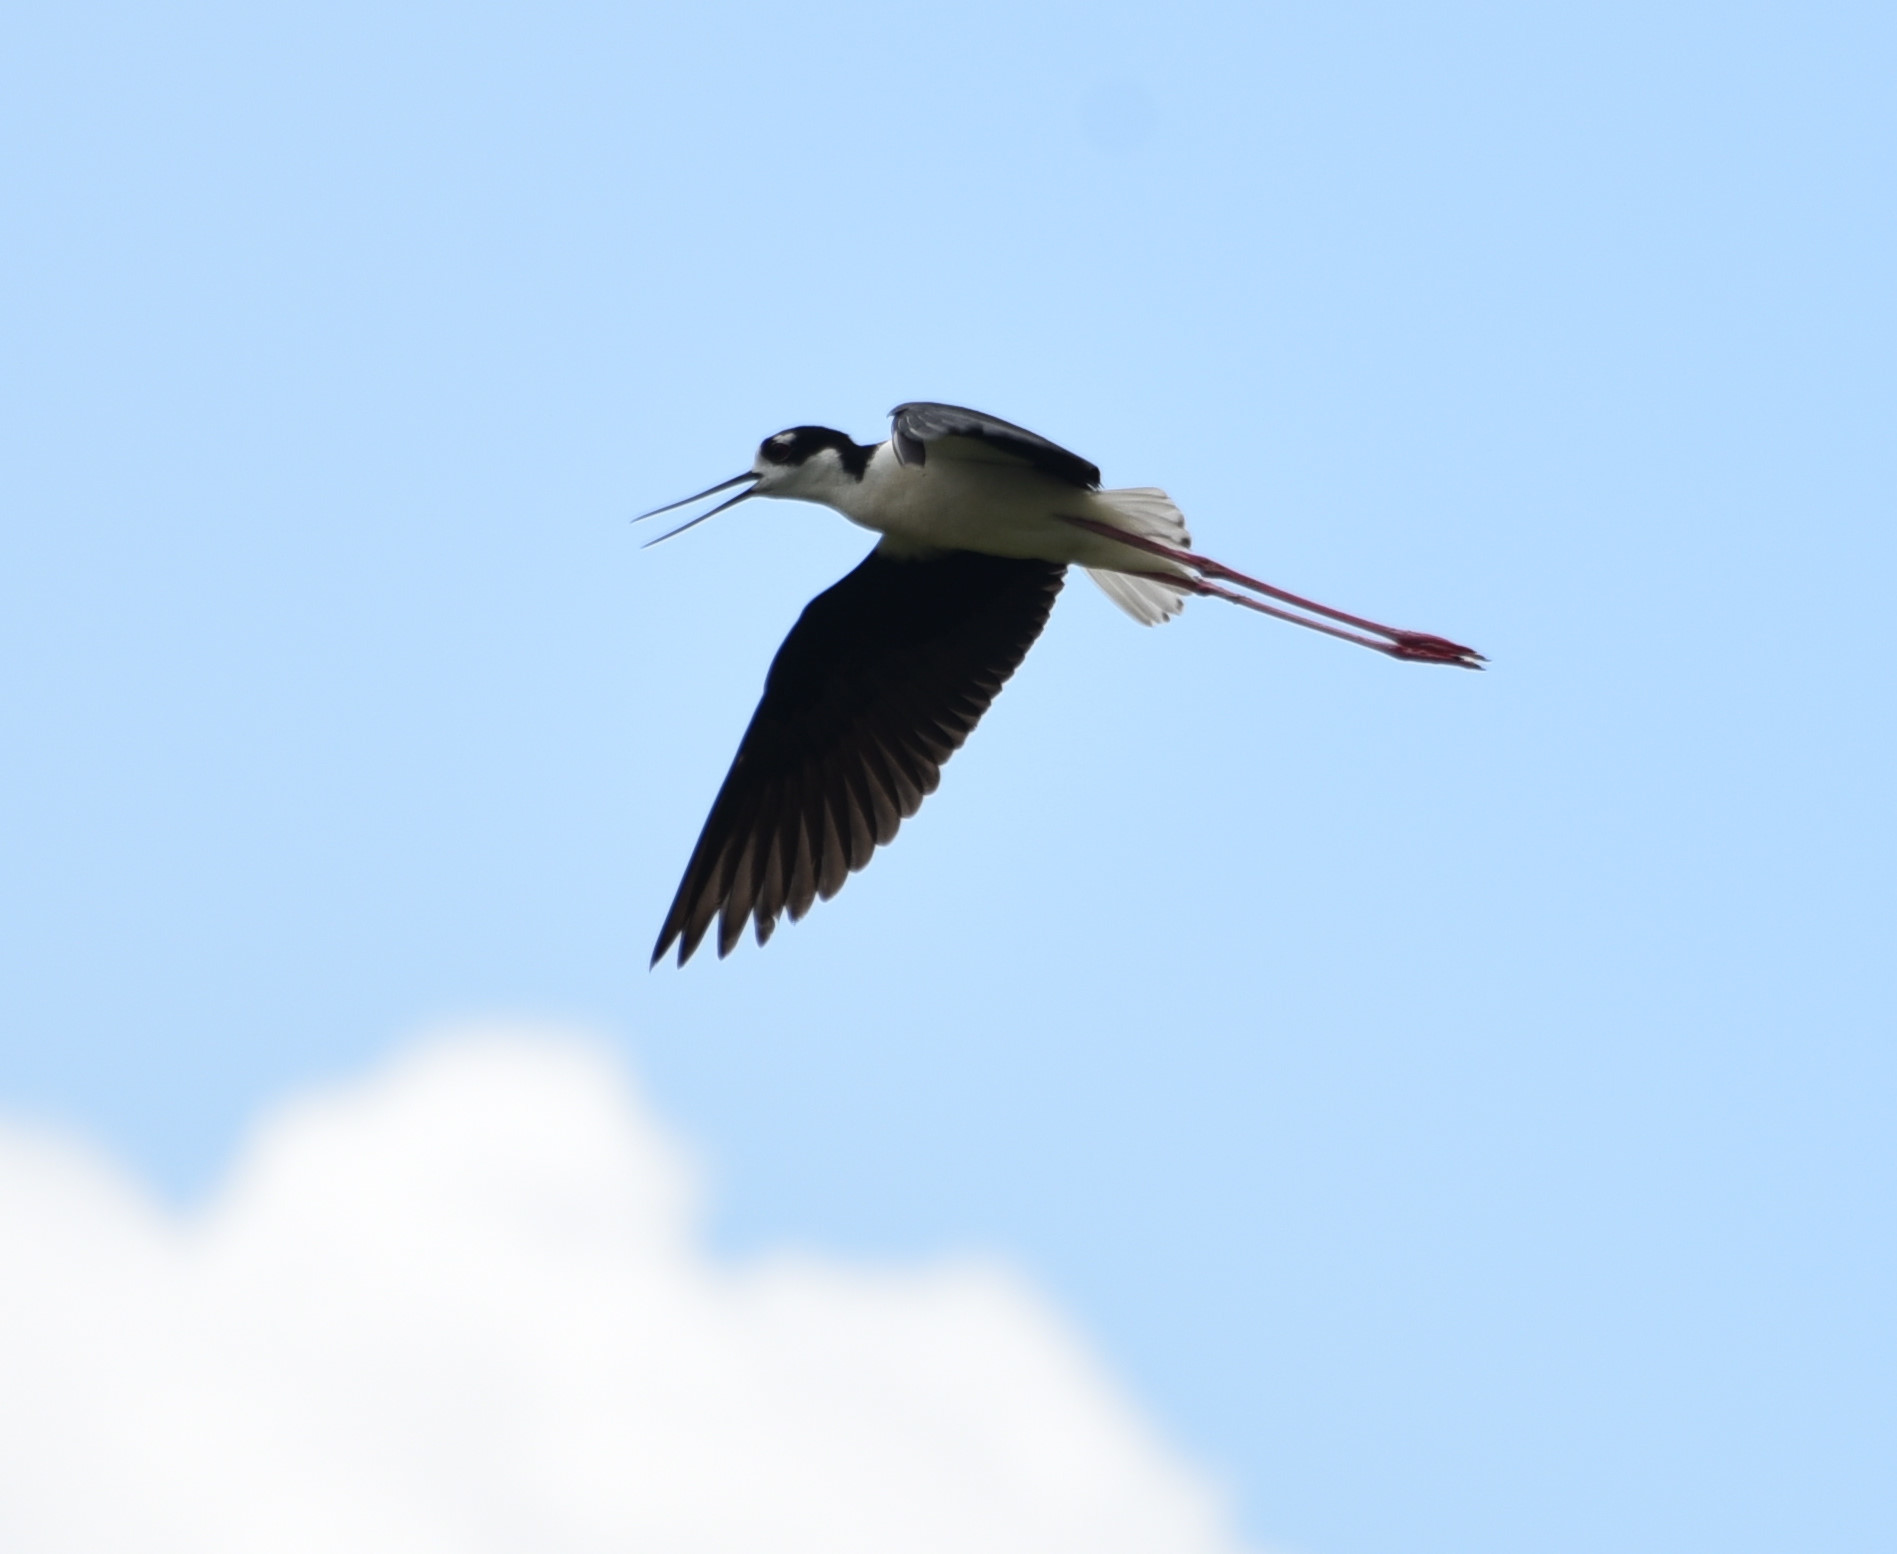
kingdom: Animalia
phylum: Chordata
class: Aves
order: Charadriiformes
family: Recurvirostridae
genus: Himantopus
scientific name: Himantopus mexicanus
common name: Black-necked stilt
